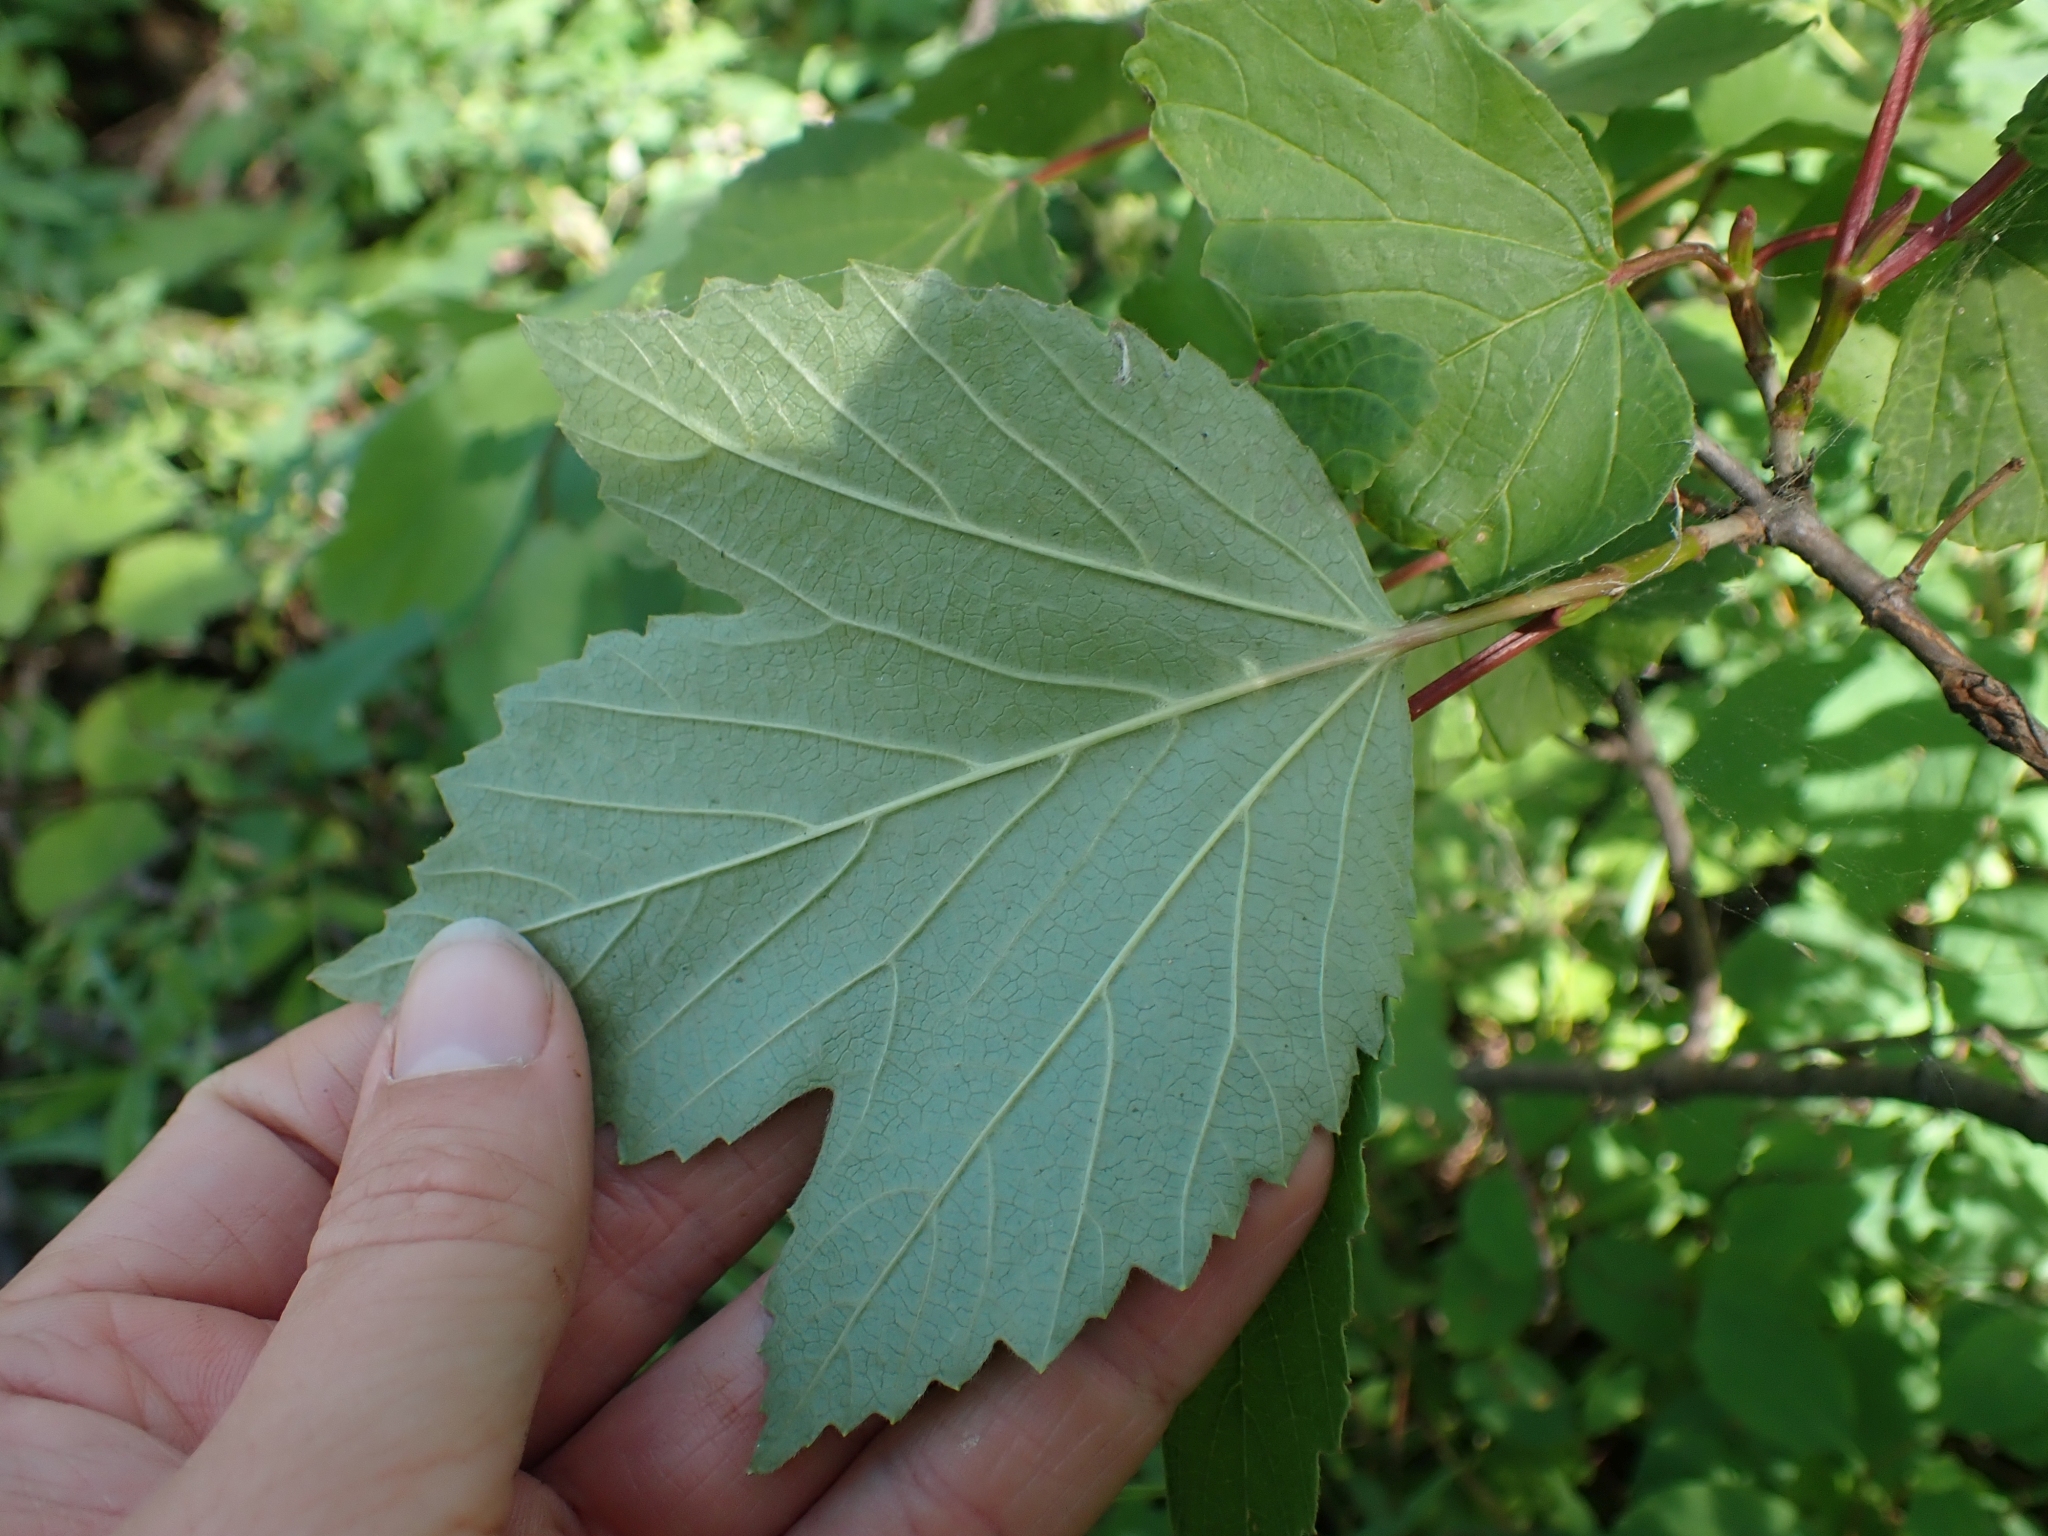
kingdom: Plantae
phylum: Tracheophyta
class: Magnoliopsida
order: Dipsacales
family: Viburnaceae
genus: Viburnum
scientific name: Viburnum edule
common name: Mooseberry
